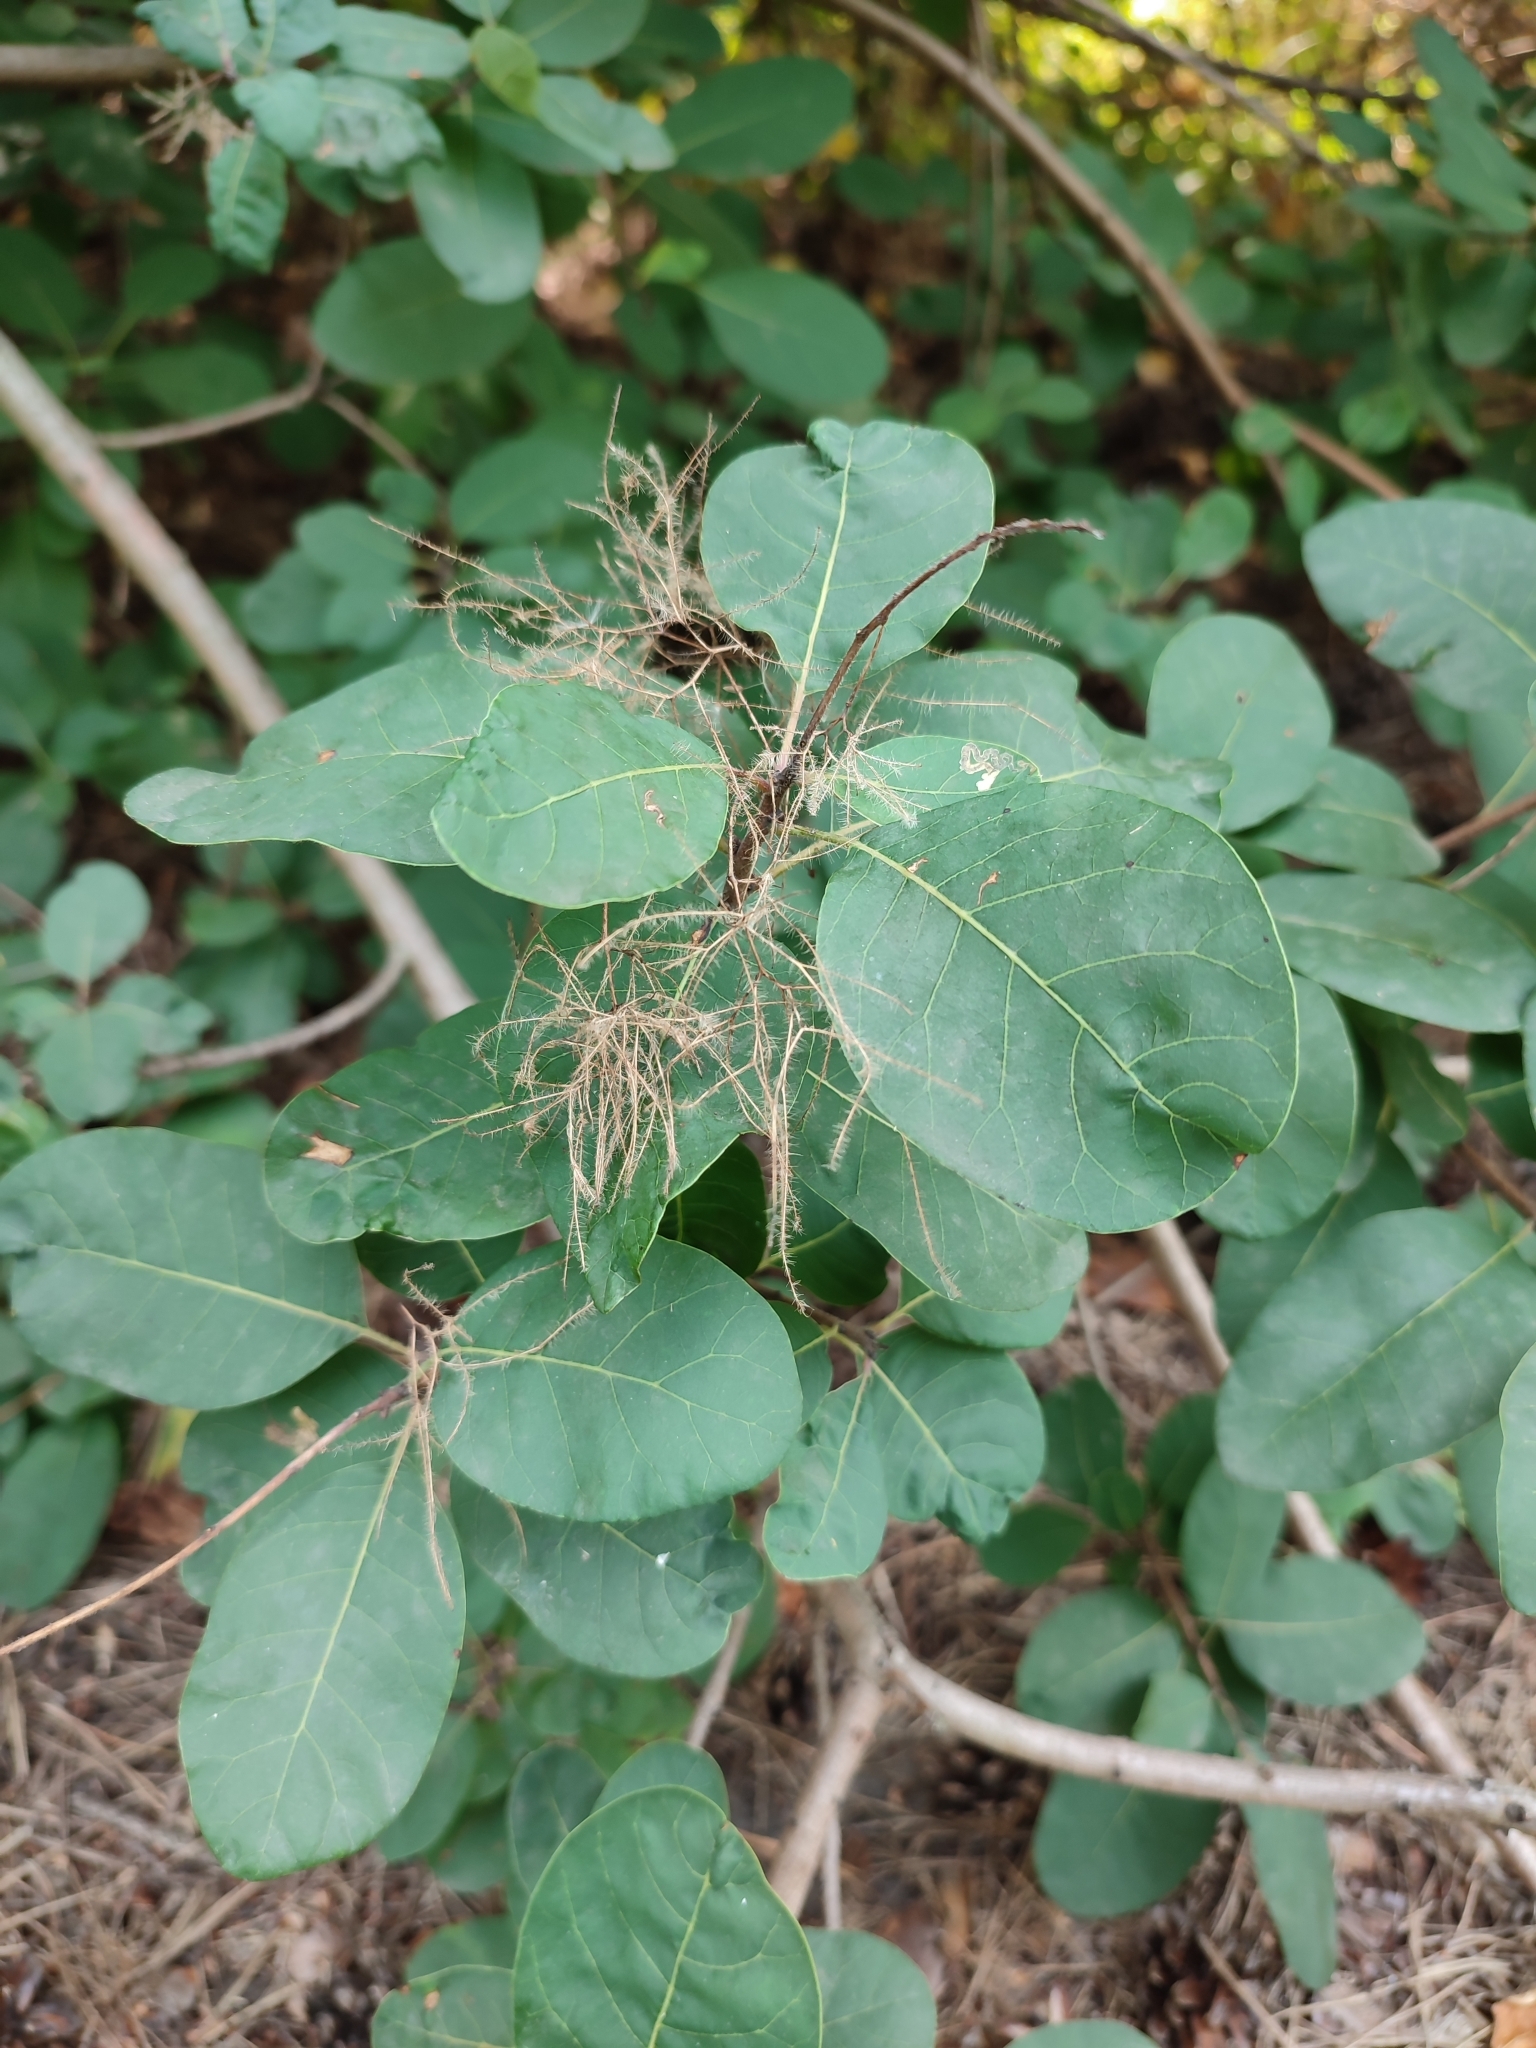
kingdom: Plantae
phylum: Tracheophyta
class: Magnoliopsida
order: Sapindales
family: Anacardiaceae
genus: Cotinus
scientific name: Cotinus coggygria
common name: Smoke-tree
